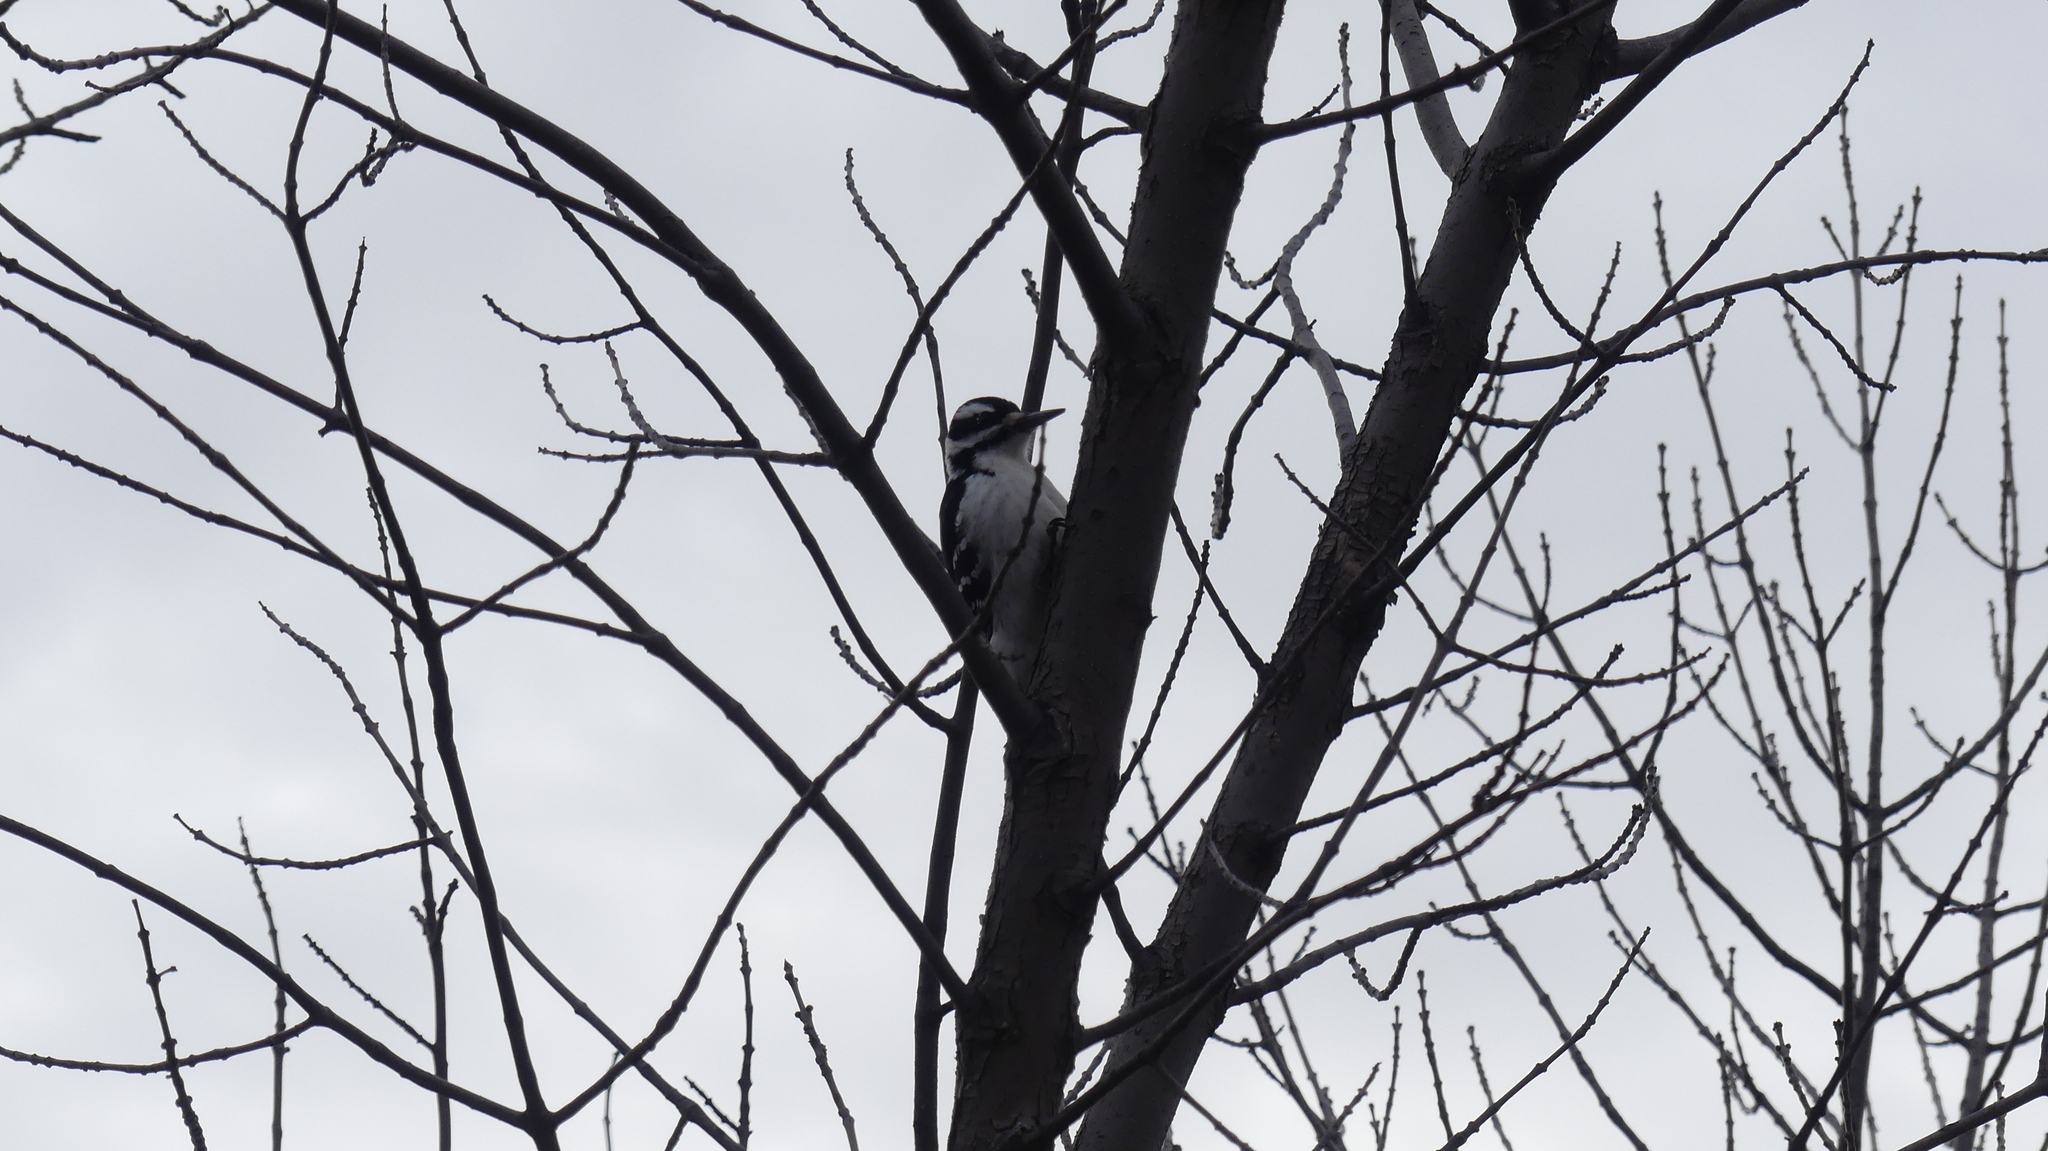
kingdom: Animalia
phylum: Chordata
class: Aves
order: Piciformes
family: Picidae
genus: Leuconotopicus
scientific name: Leuconotopicus villosus
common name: Hairy woodpecker
